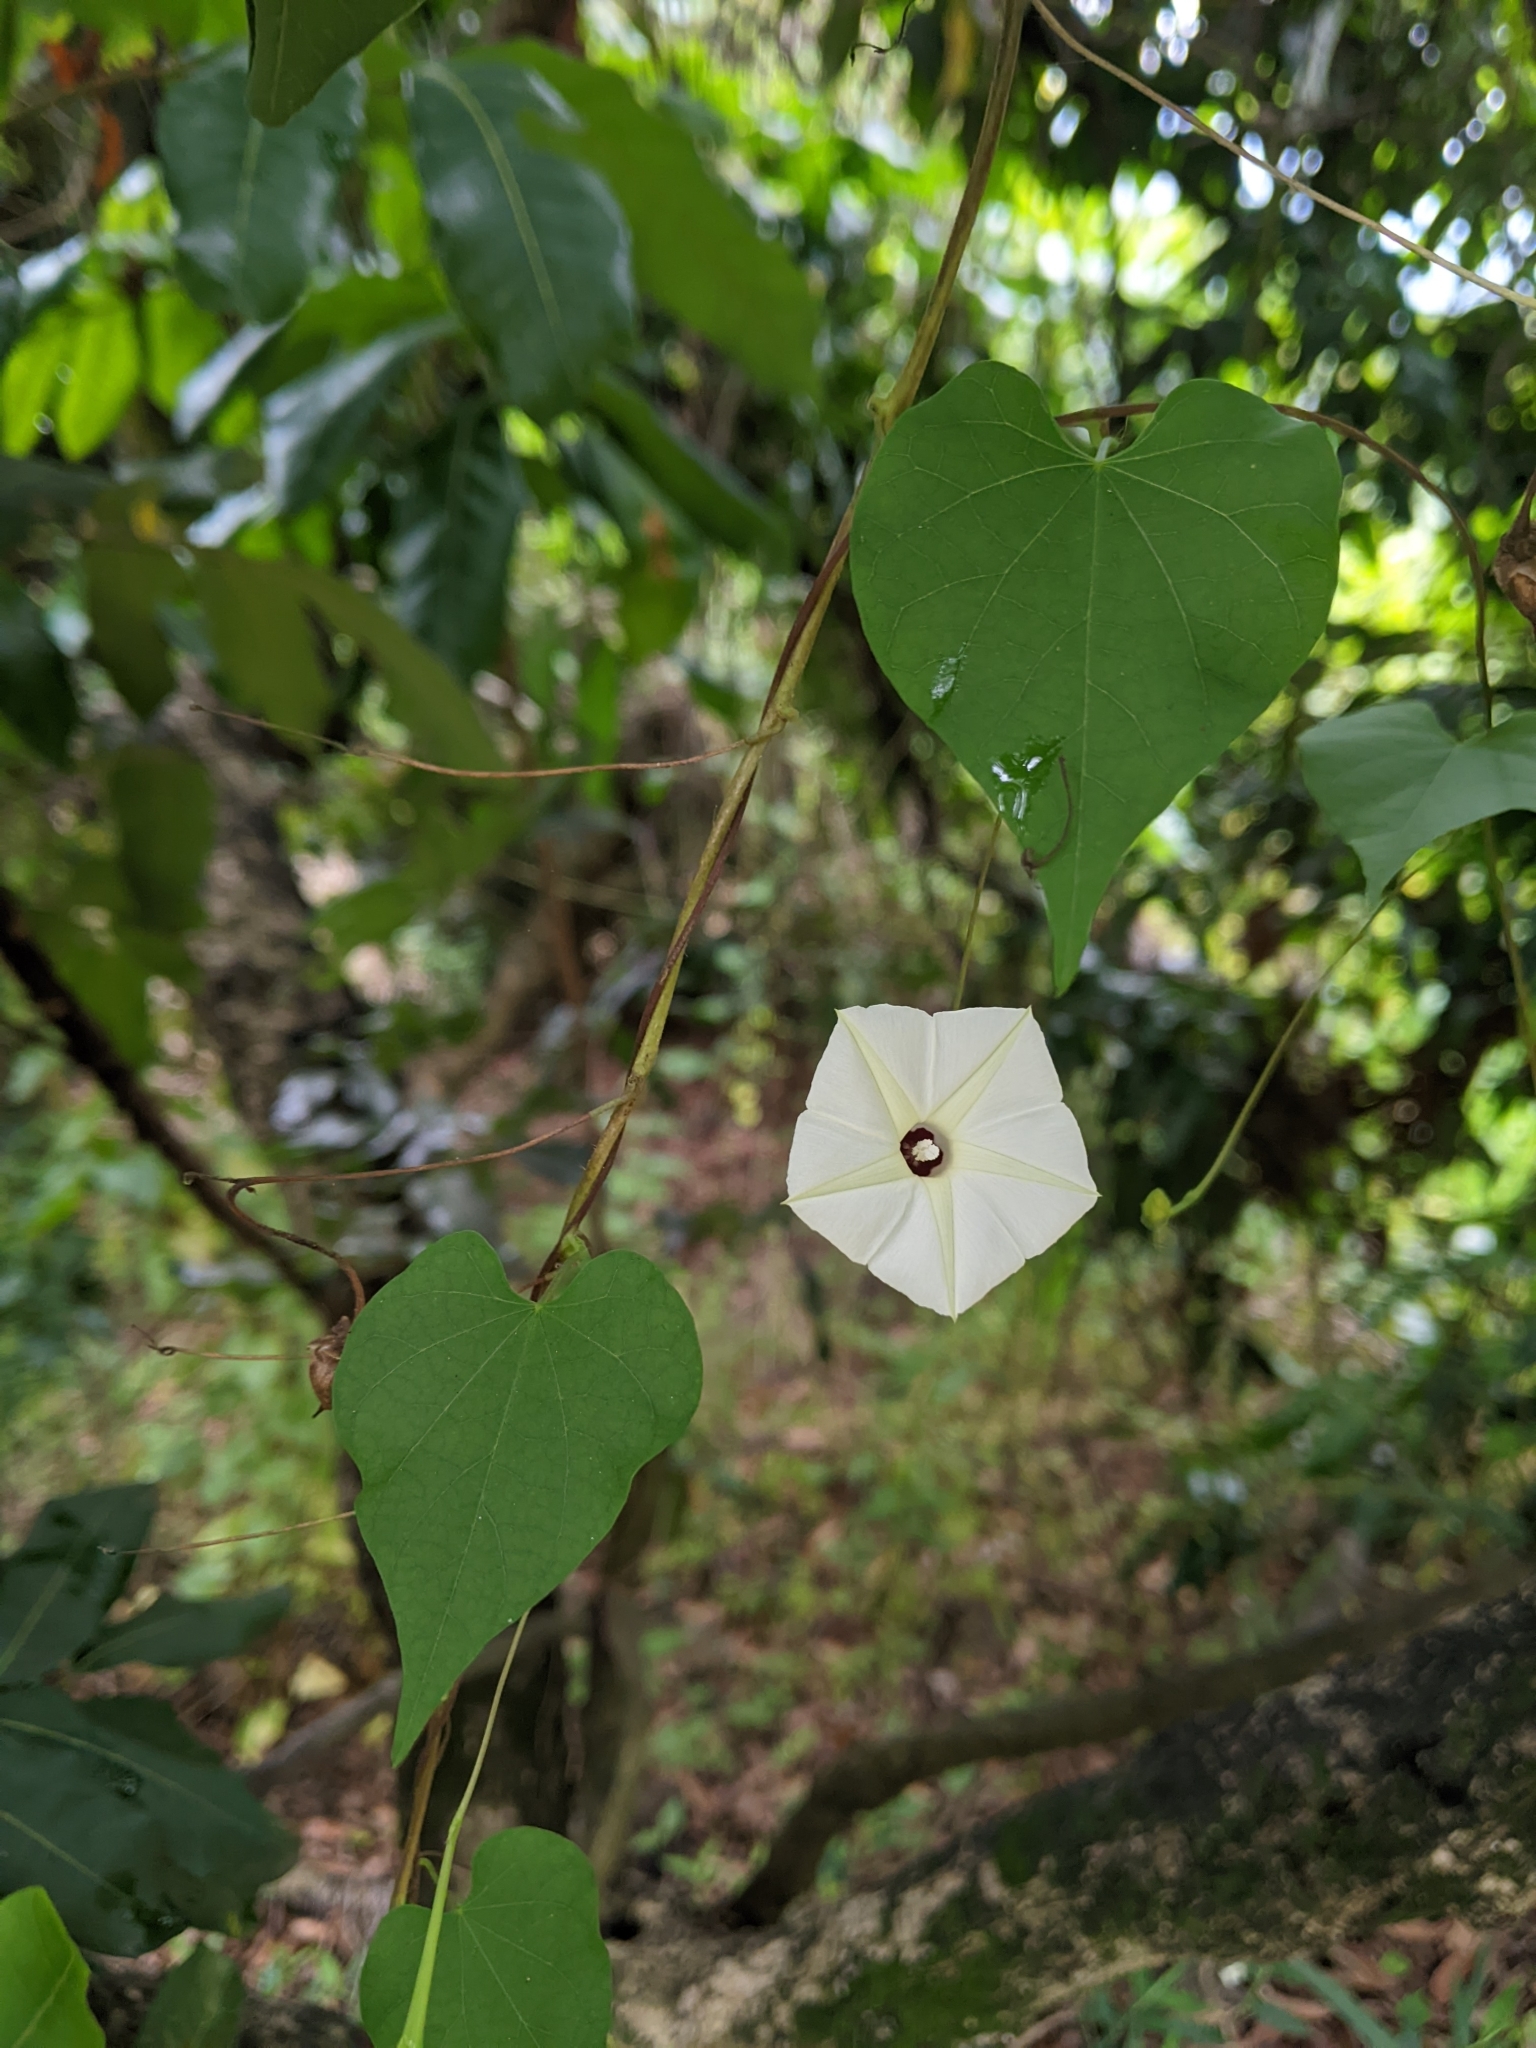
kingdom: Plantae
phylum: Tracheophyta
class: Magnoliopsida
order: Solanales
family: Convolvulaceae
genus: Ipomoea
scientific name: Ipomoea obscura
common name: Obscure morning-glory
